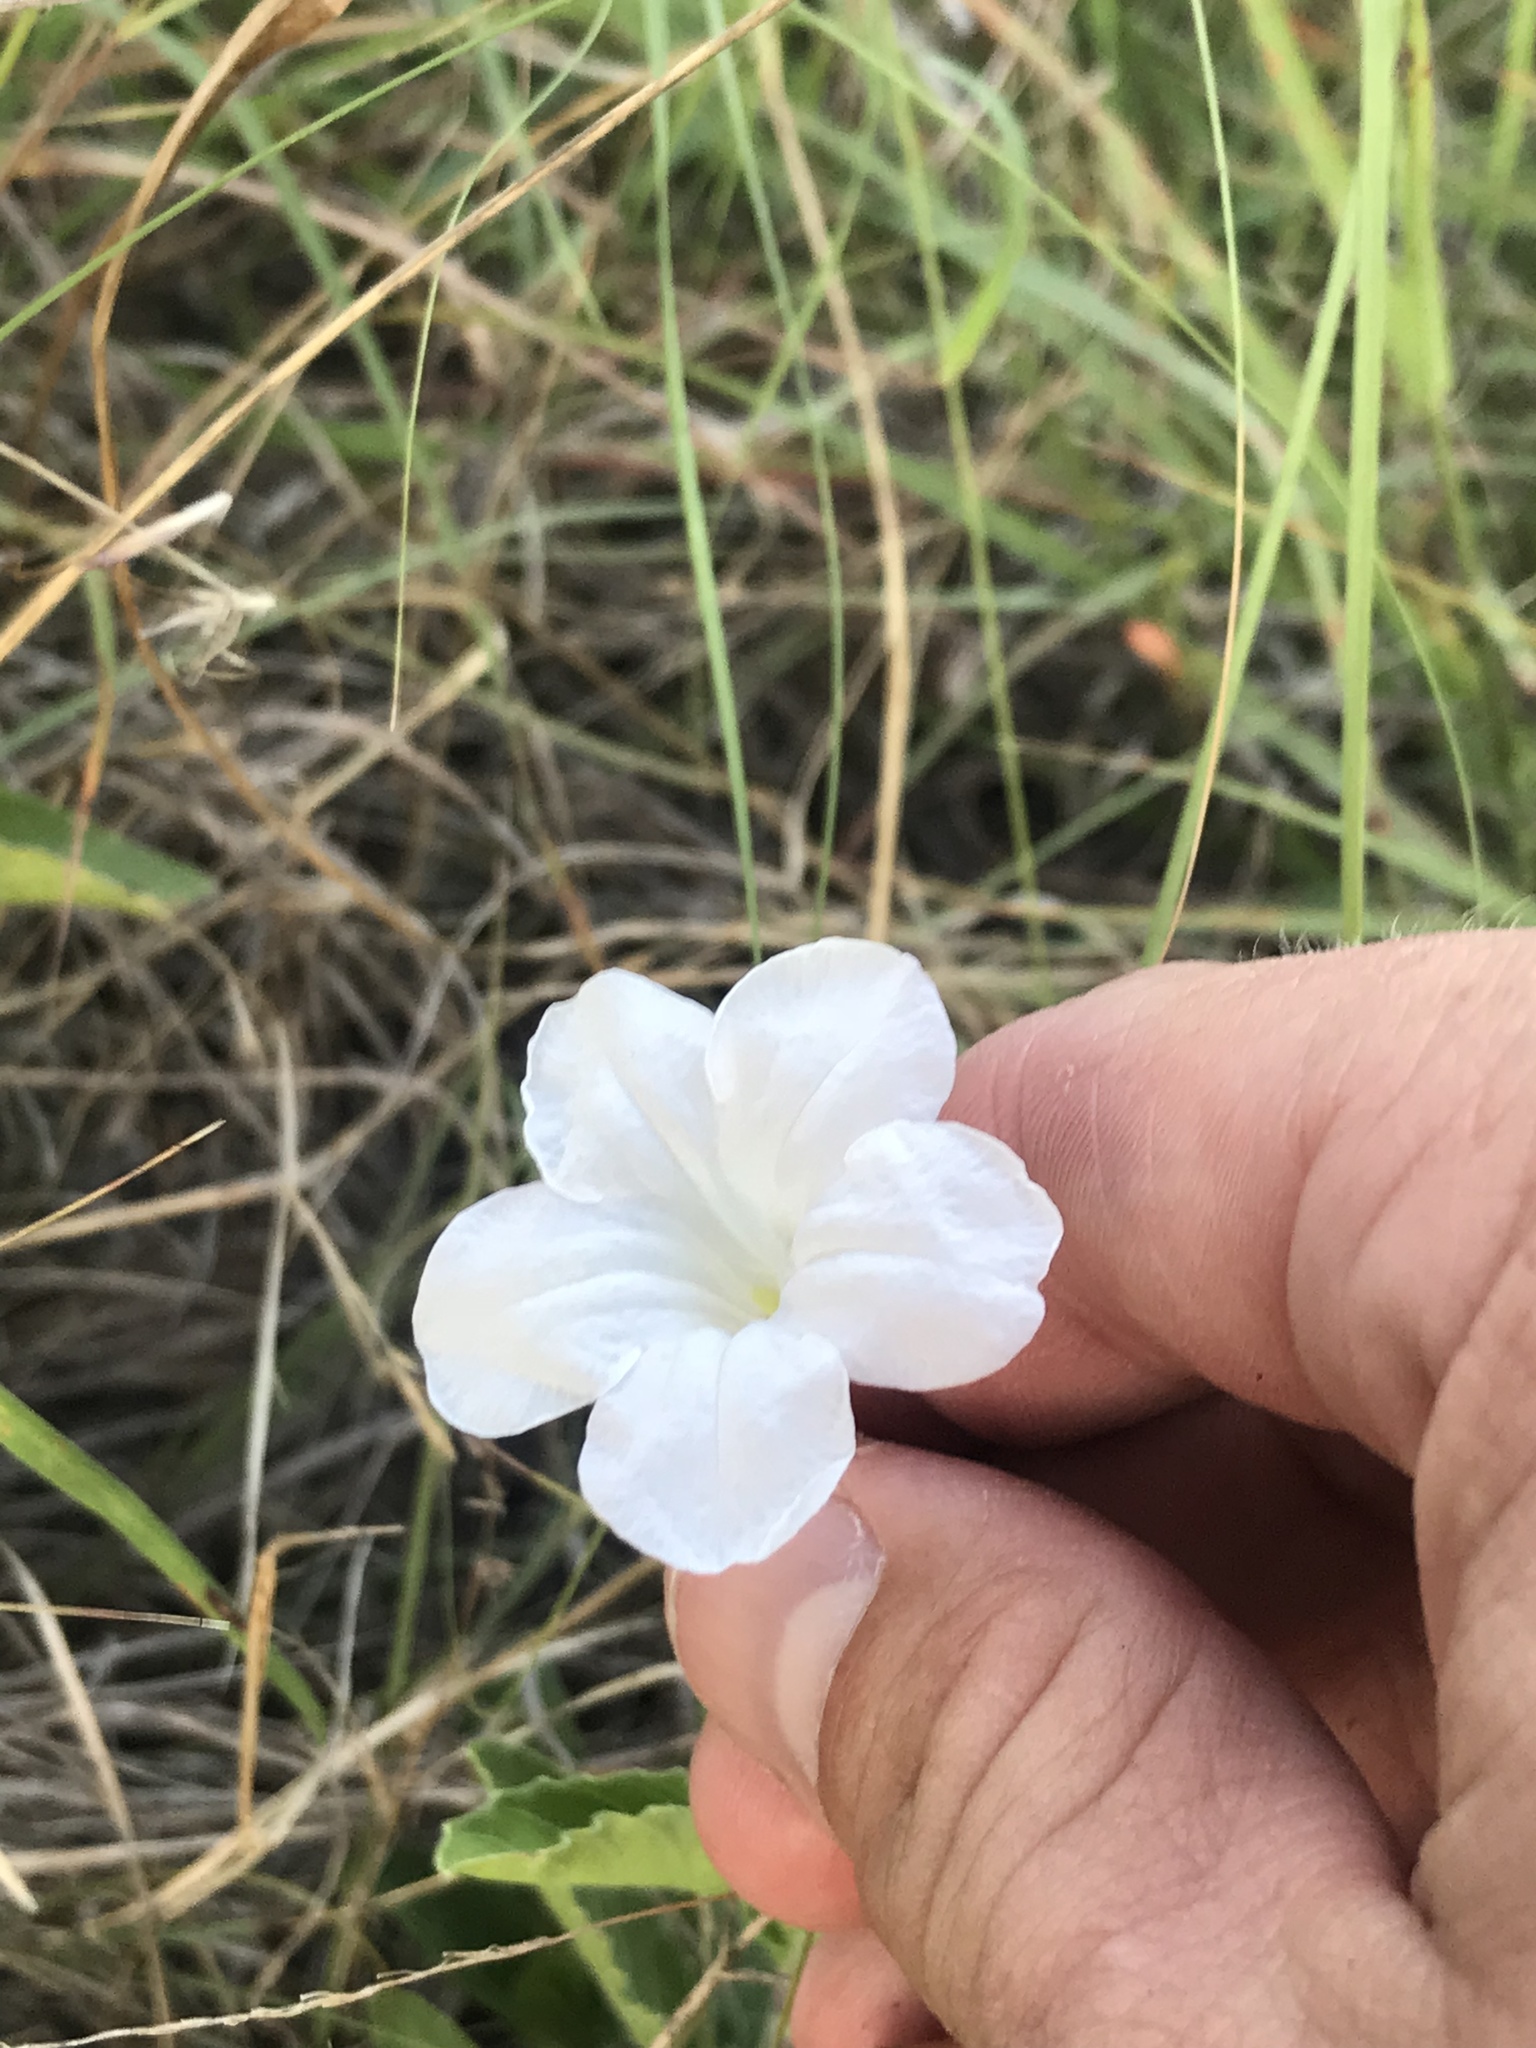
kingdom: Plantae
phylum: Tracheophyta
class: Magnoliopsida
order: Lamiales
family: Acanthaceae
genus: Ruellia
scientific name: Ruellia metziae
